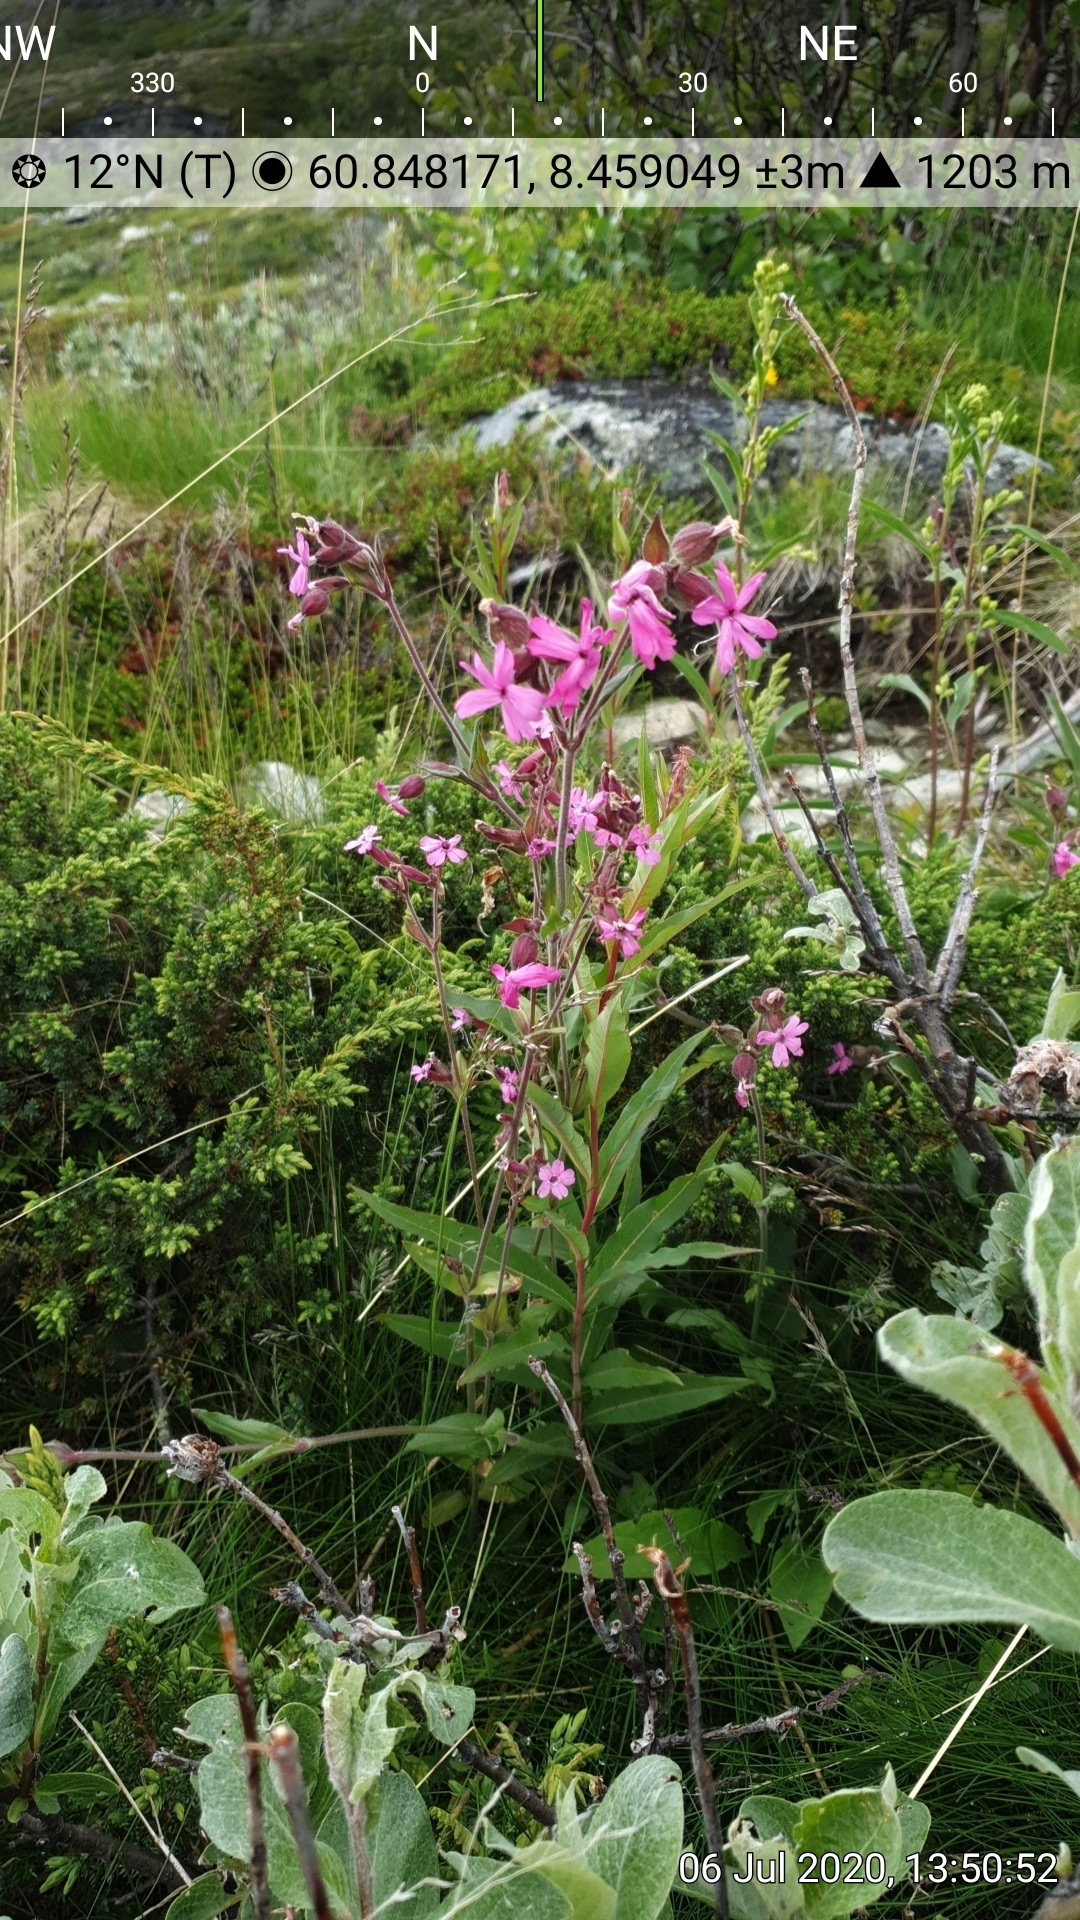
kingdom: Plantae
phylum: Tracheophyta
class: Magnoliopsida
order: Caryophyllales
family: Caryophyllaceae
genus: Silene
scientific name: Silene dioica
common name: Red campion
